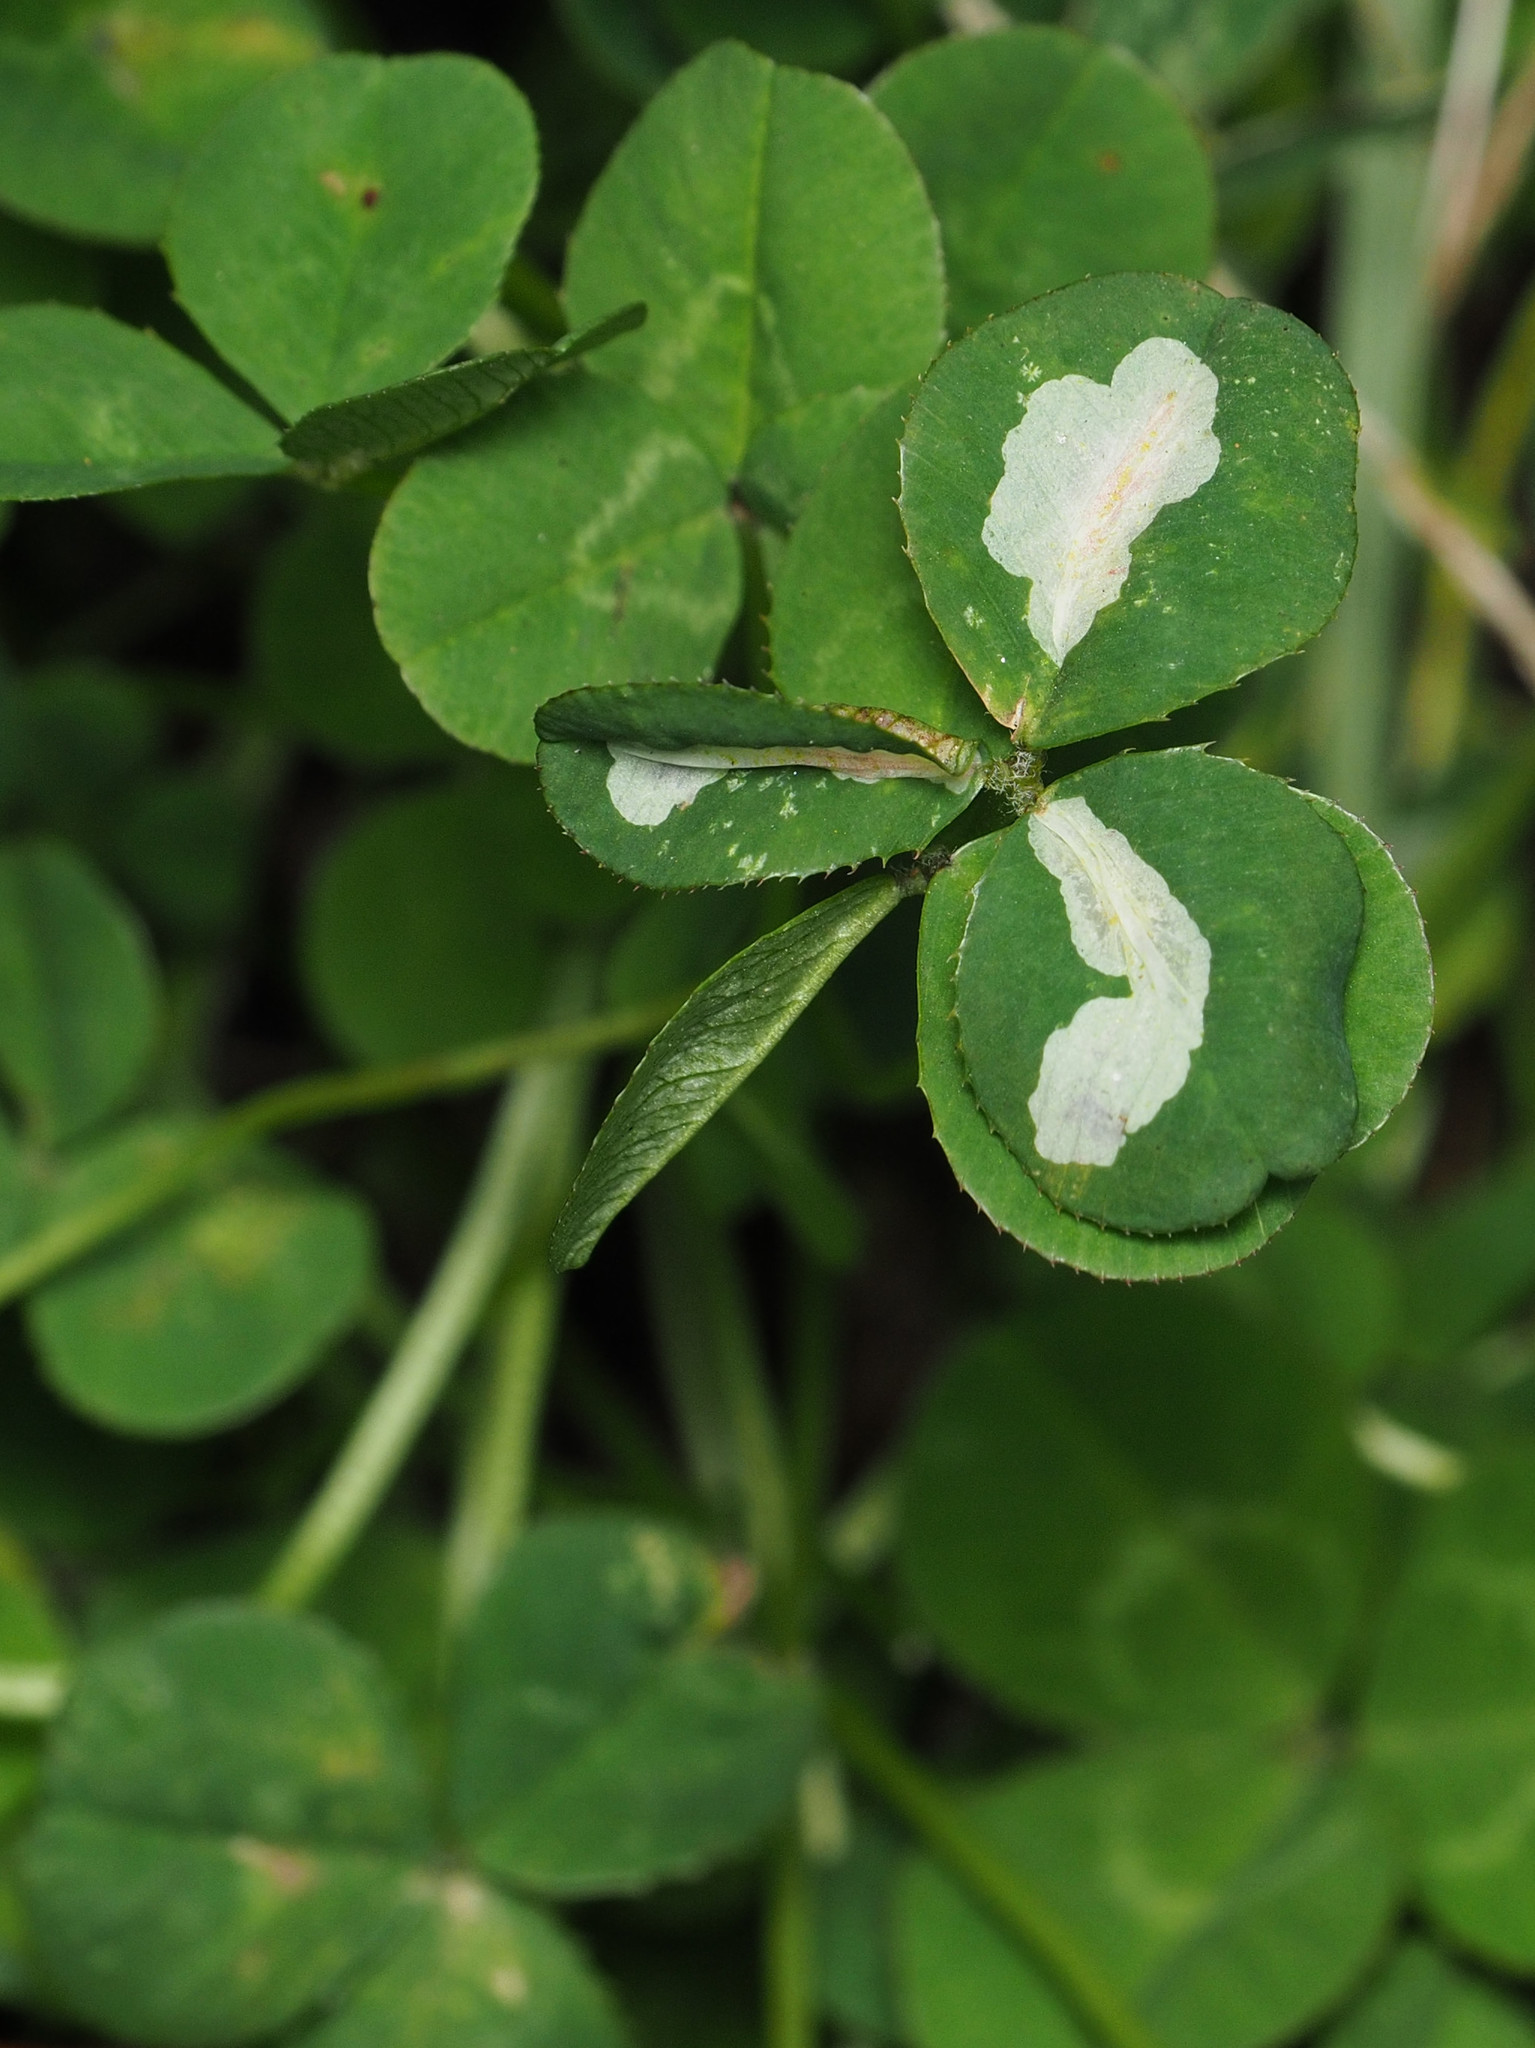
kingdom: Animalia
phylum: Arthropoda
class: Insecta
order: Lepidoptera
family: Gracillariidae
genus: Porphyrosela
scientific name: Porphyrosela minuta
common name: Leaf miner moth
